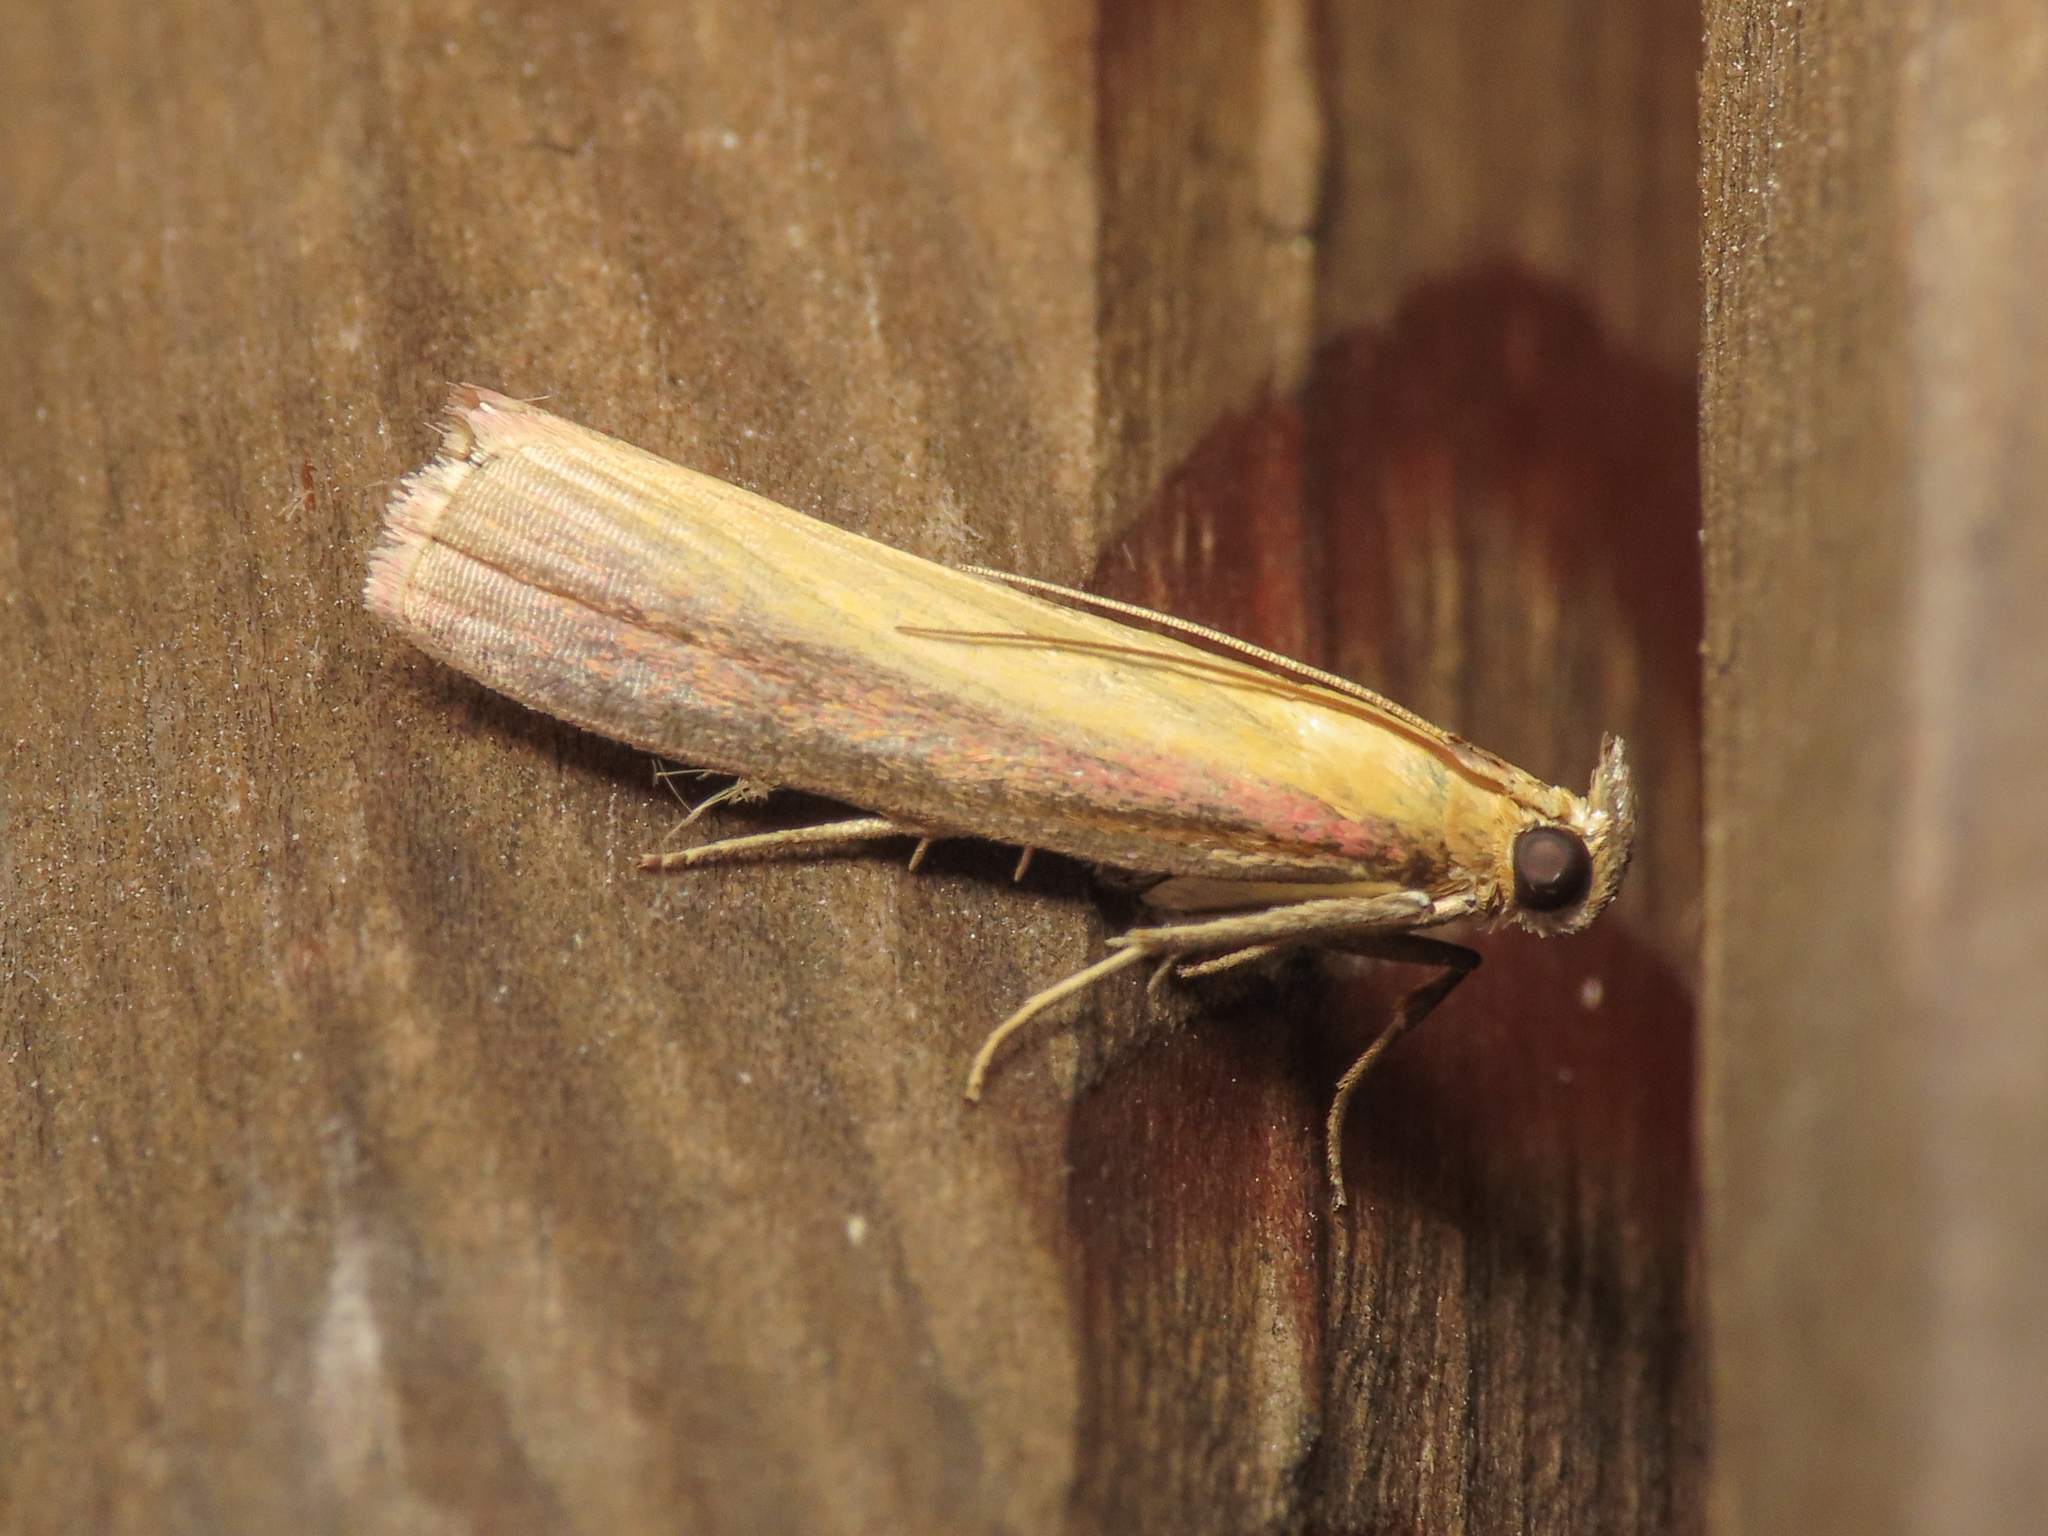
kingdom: Animalia
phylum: Arthropoda
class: Insecta
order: Lepidoptera
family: Pyralidae
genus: Oncocera
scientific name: Oncocera semirubella
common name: Rosy-striped knot-horn
